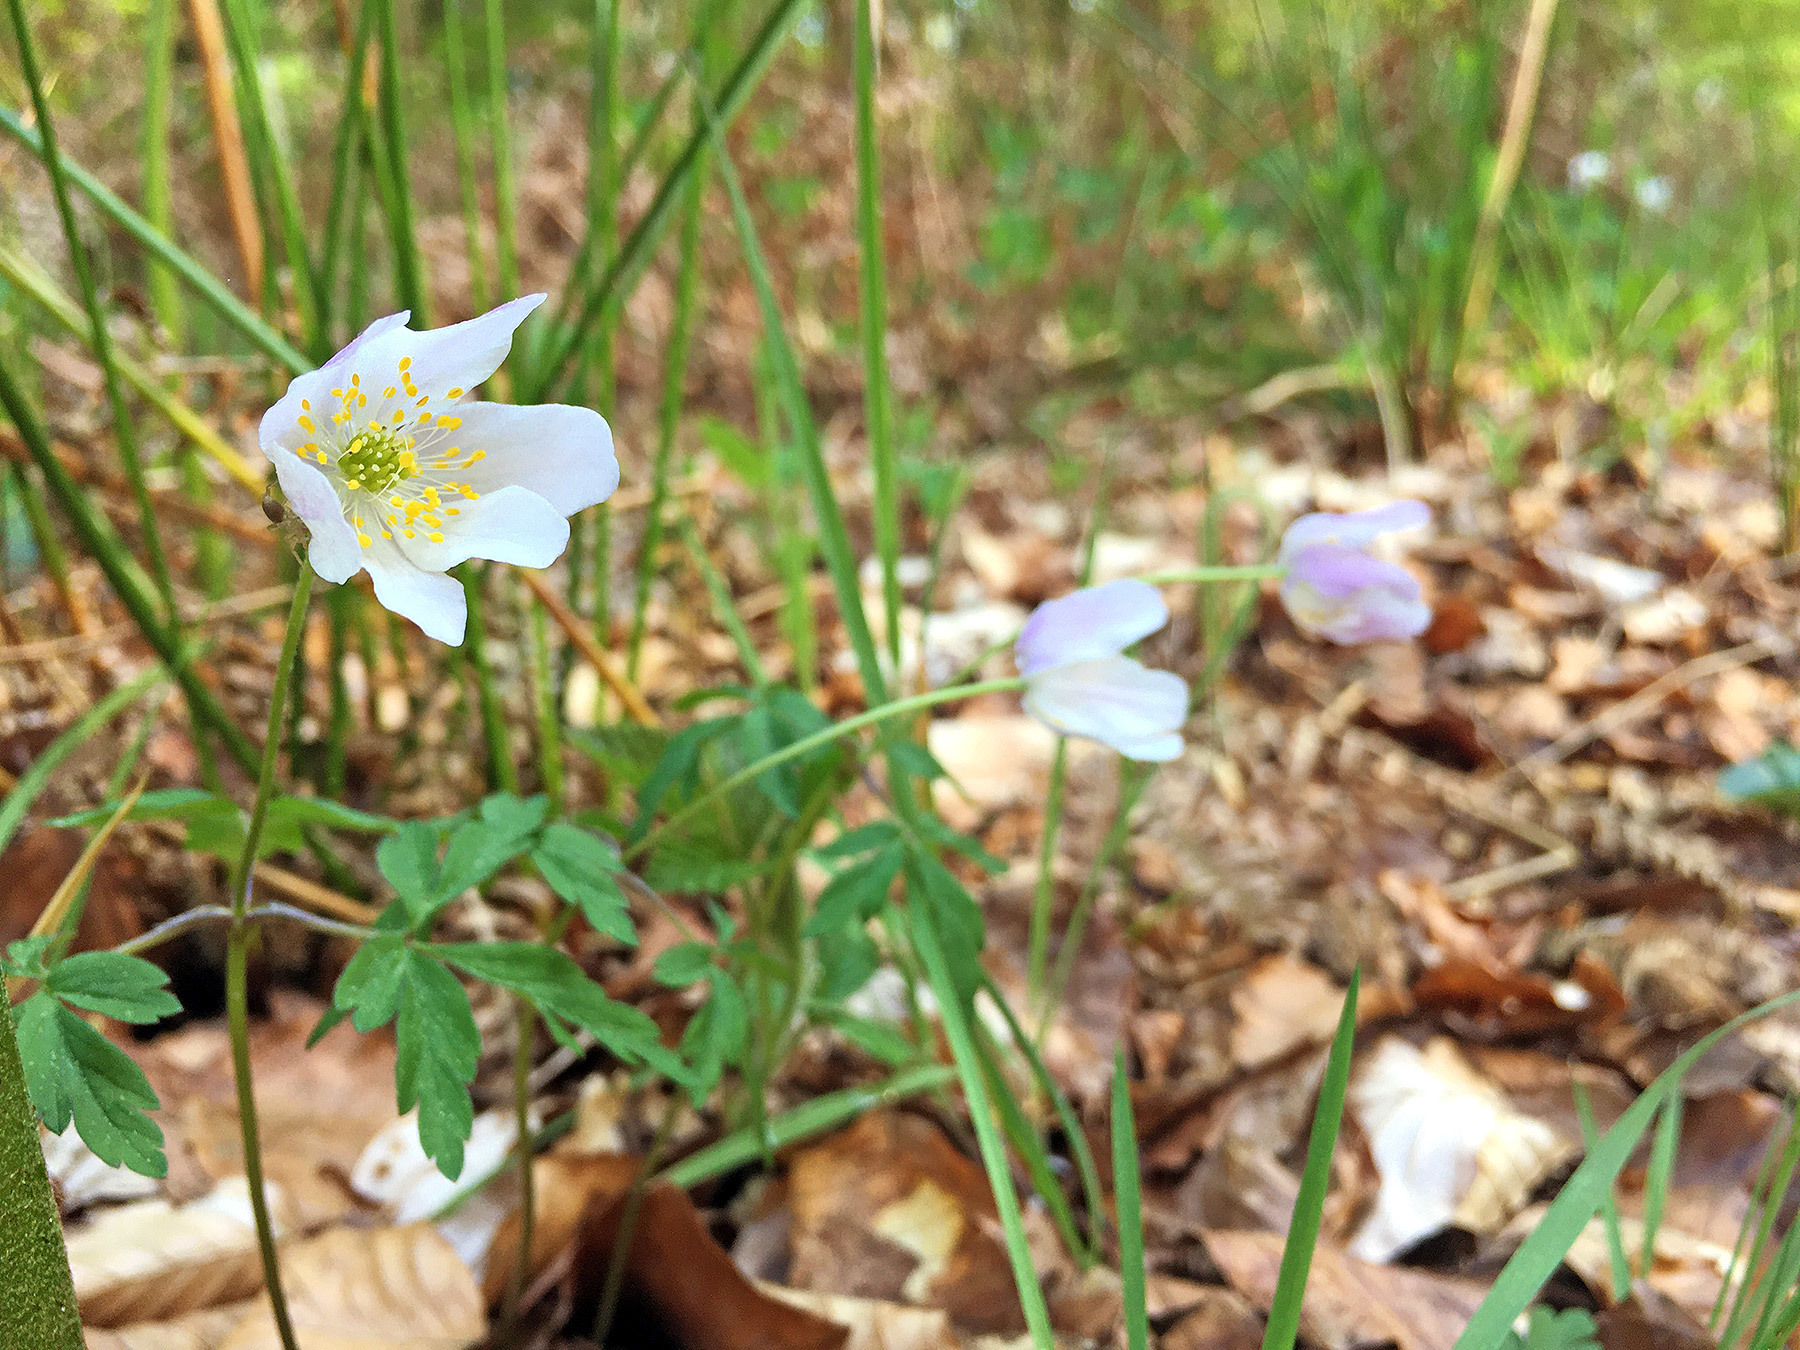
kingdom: Plantae
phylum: Tracheophyta
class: Magnoliopsida
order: Ranunculales
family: Ranunculaceae
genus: Anemone
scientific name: Anemone nemorosa
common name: Wood anemone
